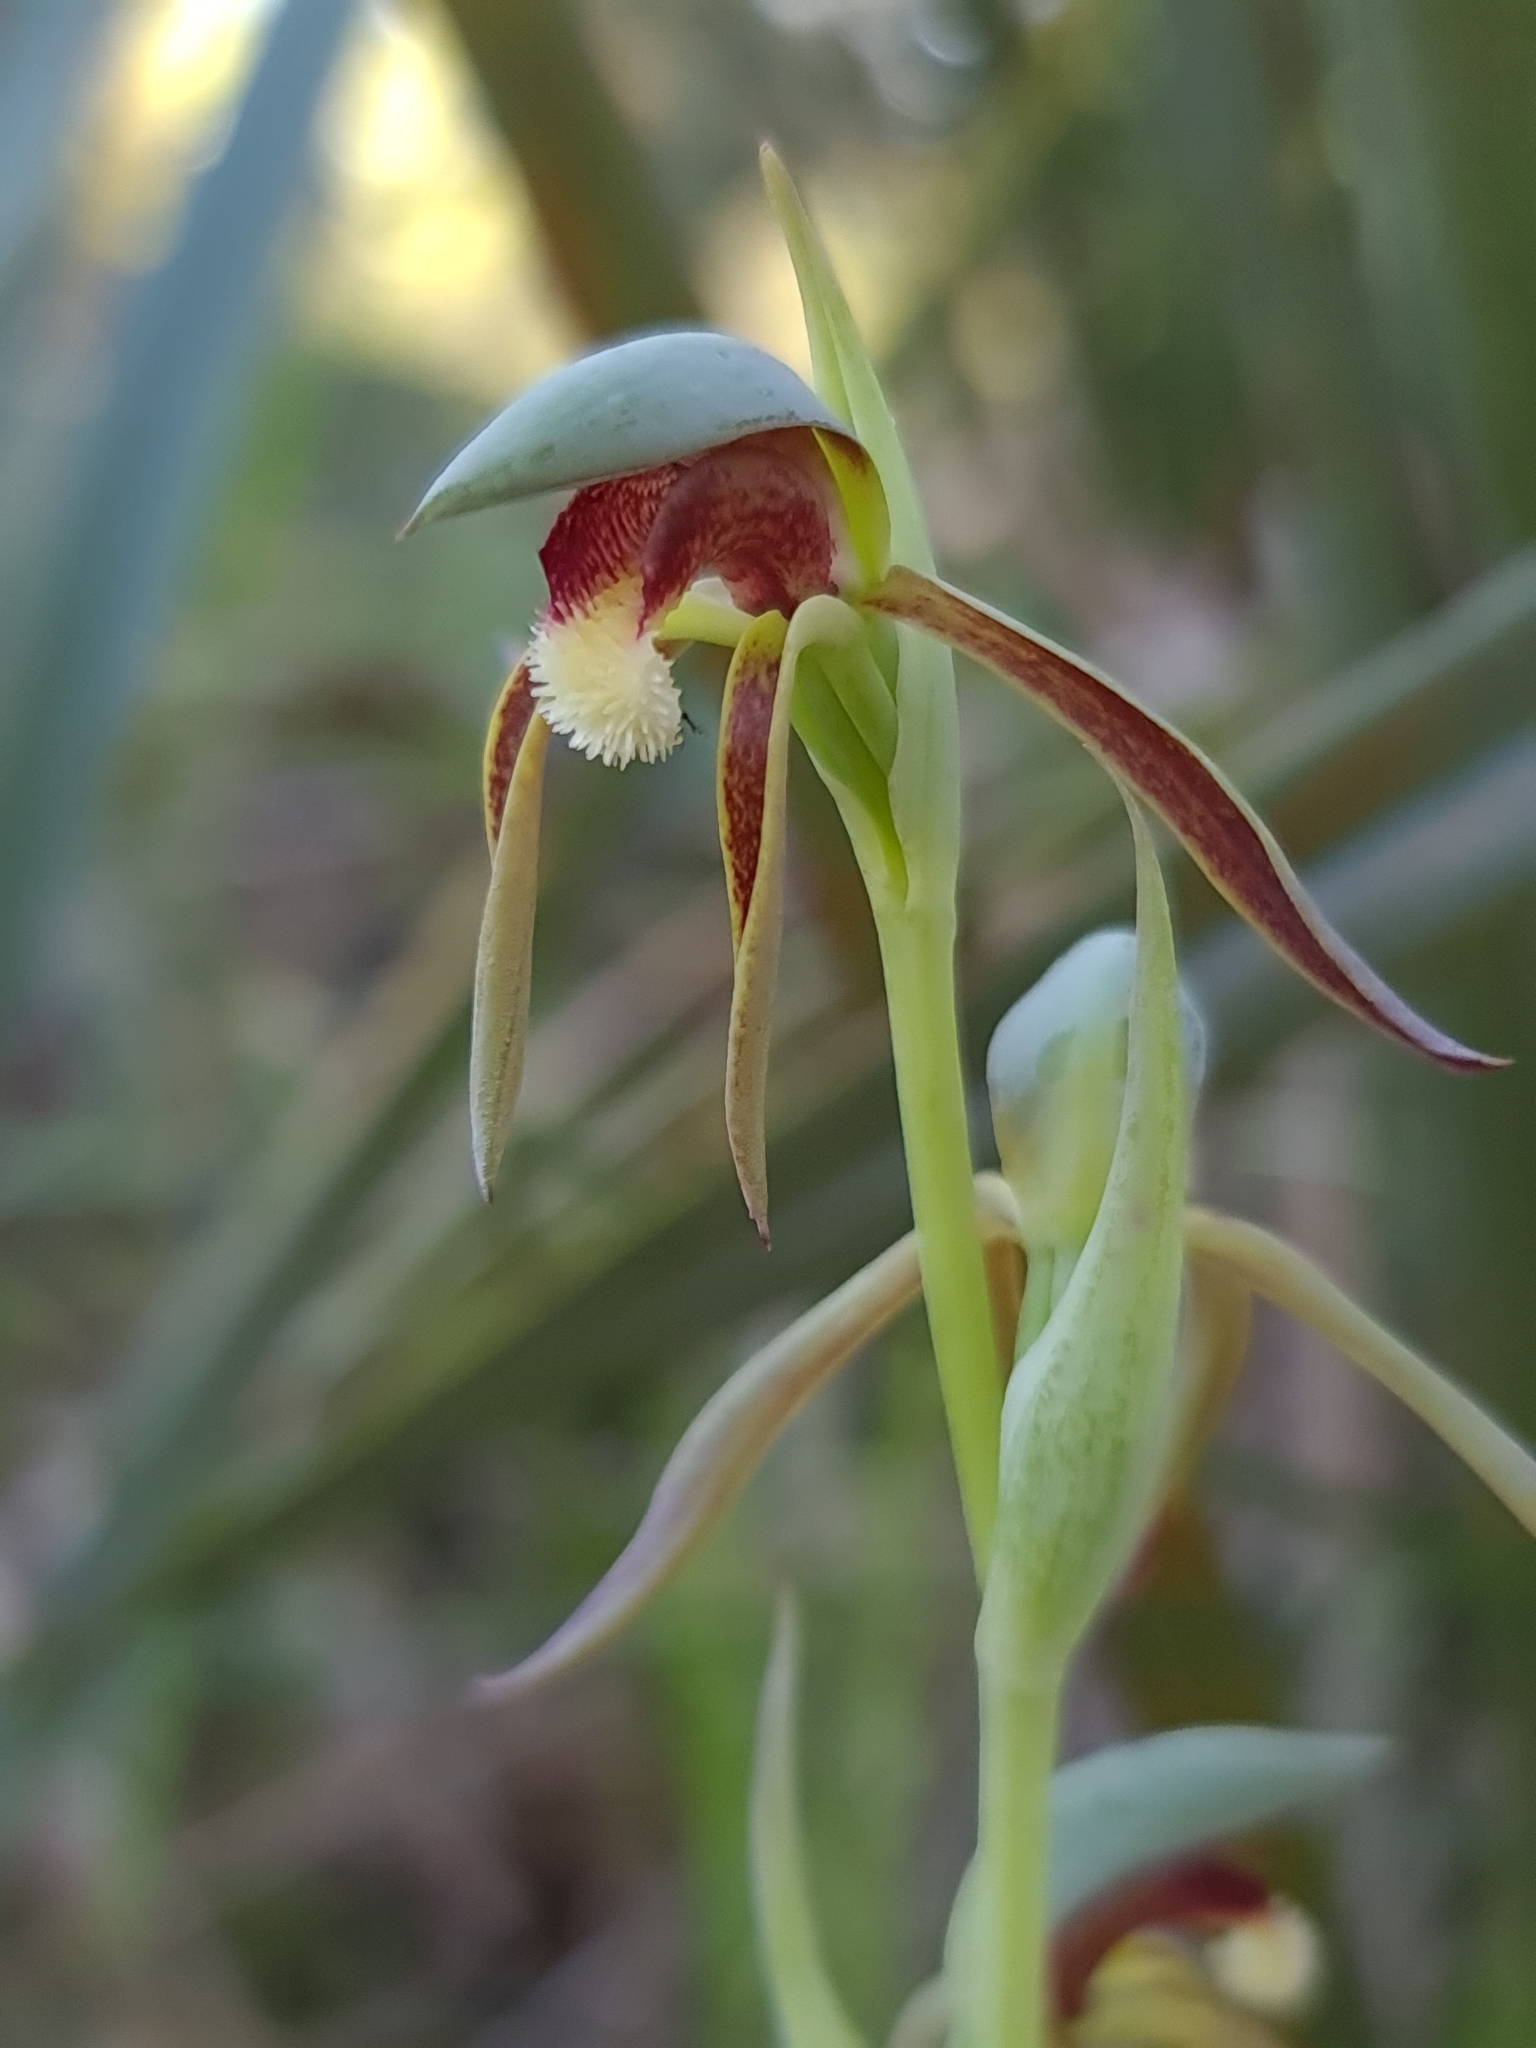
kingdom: Plantae
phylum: Tracheophyta
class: Liliopsida
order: Asparagales
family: Orchidaceae
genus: Lyperanthus
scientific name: Lyperanthus serratus
